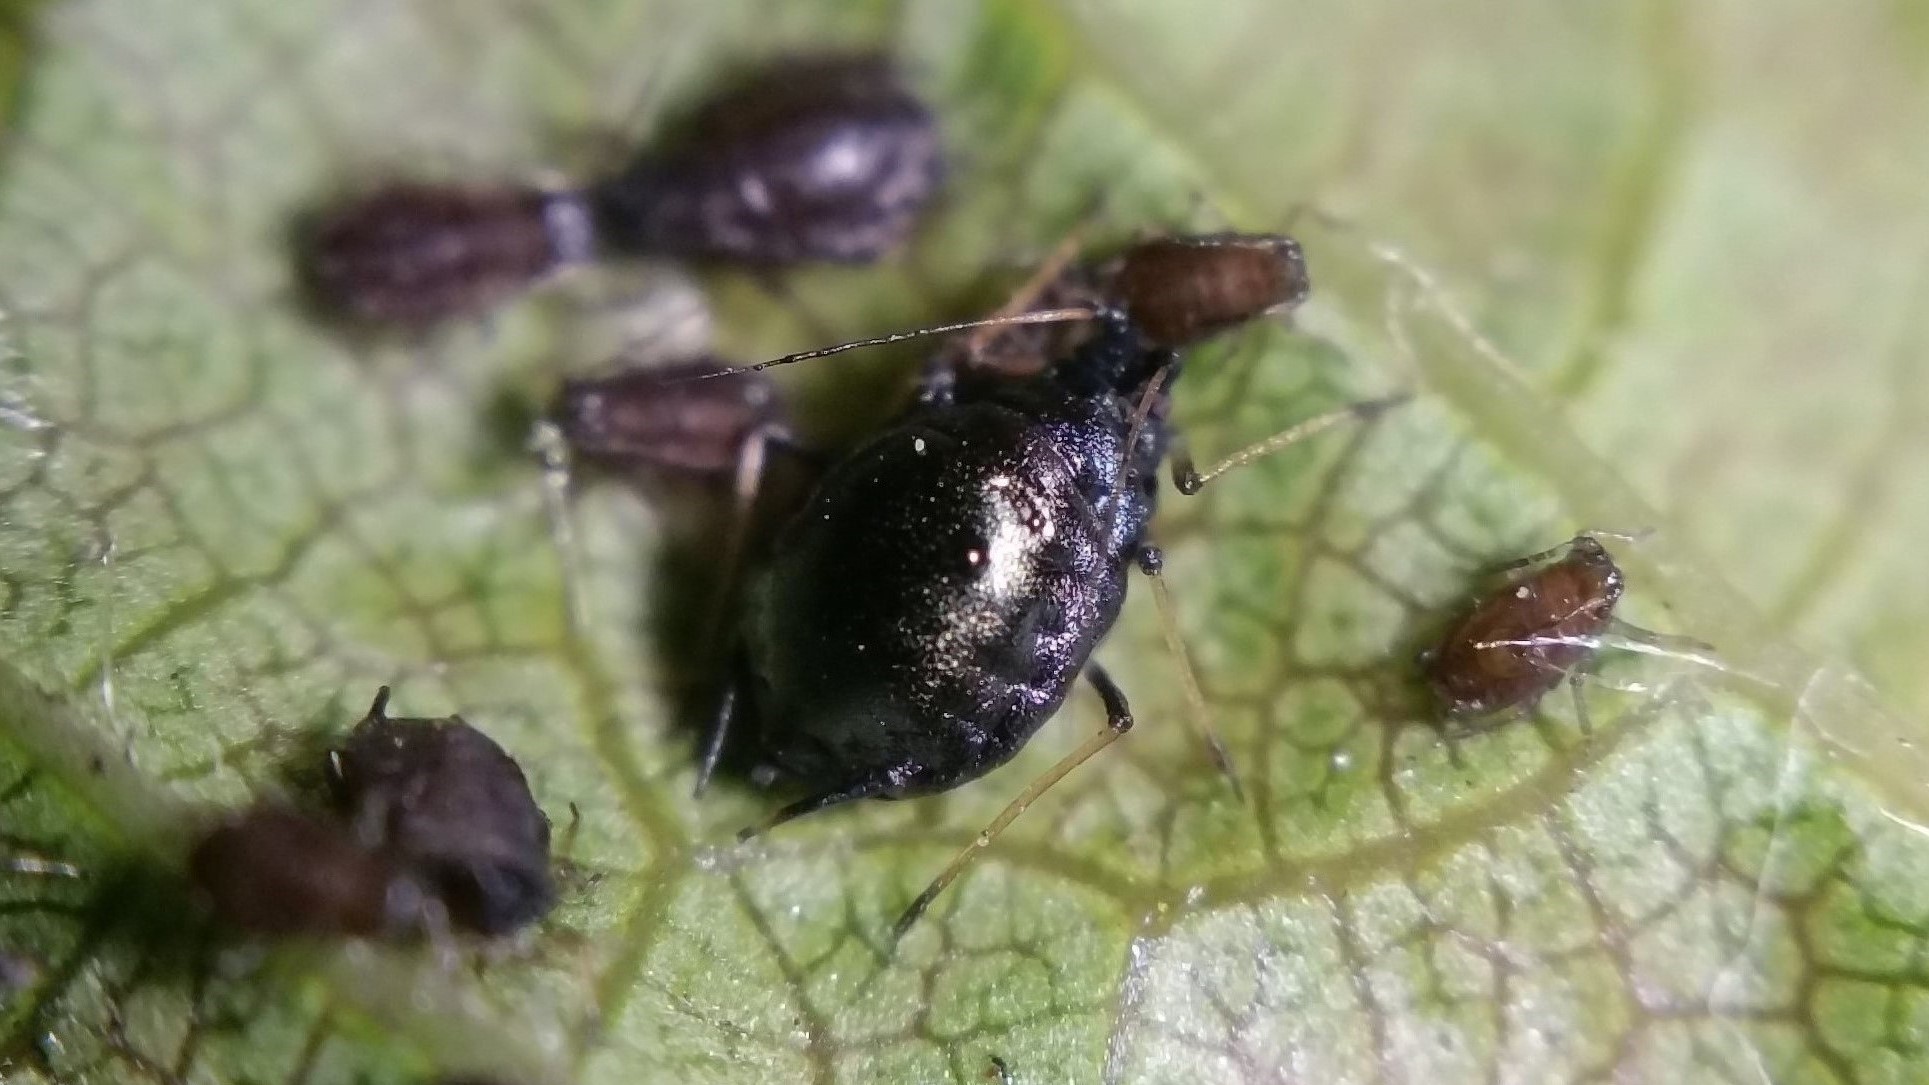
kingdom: Animalia
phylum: Arthropoda
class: Insecta
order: Hemiptera
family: Aphididae
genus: Myzus
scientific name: Myzus cerasi
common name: Black cherry aphid
